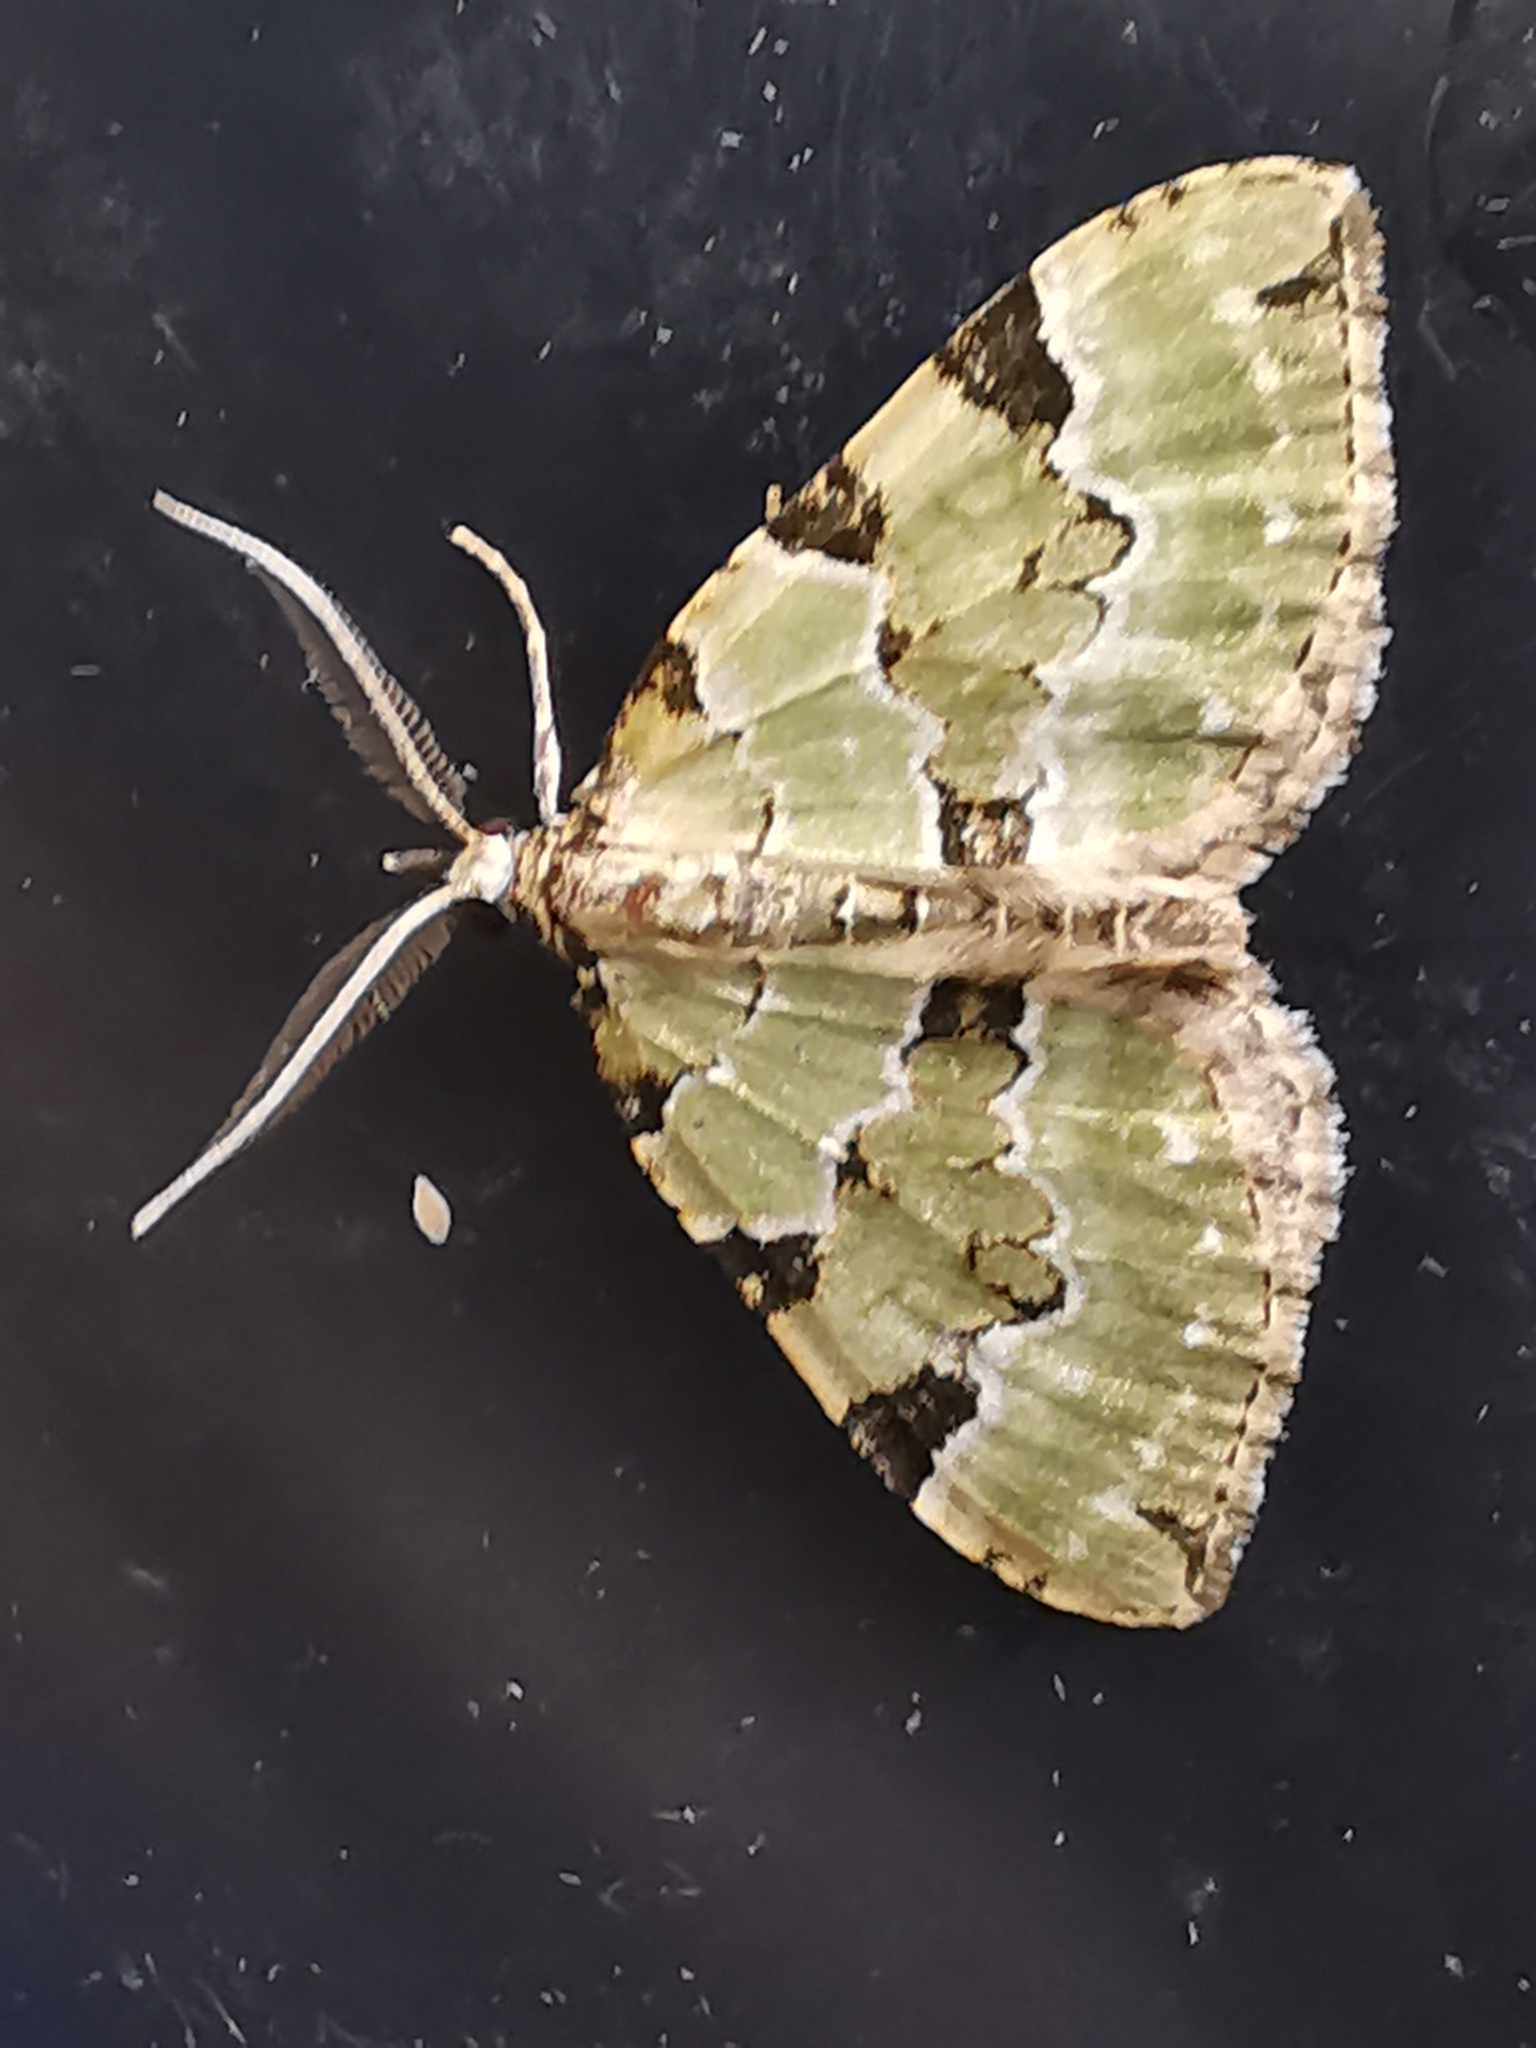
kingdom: Animalia
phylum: Arthropoda
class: Insecta
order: Lepidoptera
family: Geometridae
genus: Colostygia
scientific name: Colostygia pectinataria
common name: Green carpet
